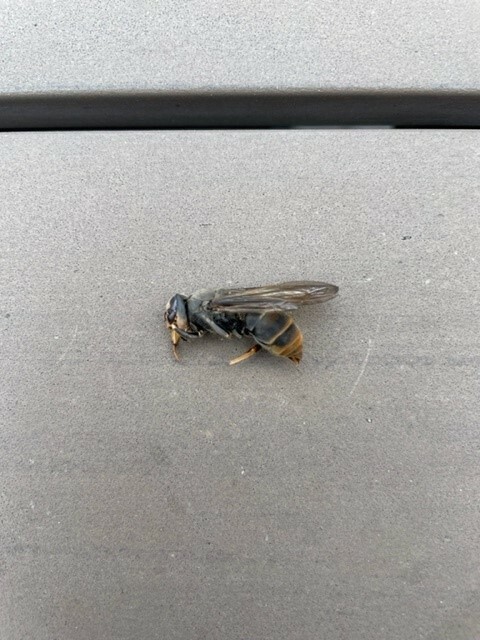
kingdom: Animalia
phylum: Arthropoda
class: Insecta
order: Hymenoptera
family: Vespidae
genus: Vespa
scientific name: Vespa velutina
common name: Asian hornet
